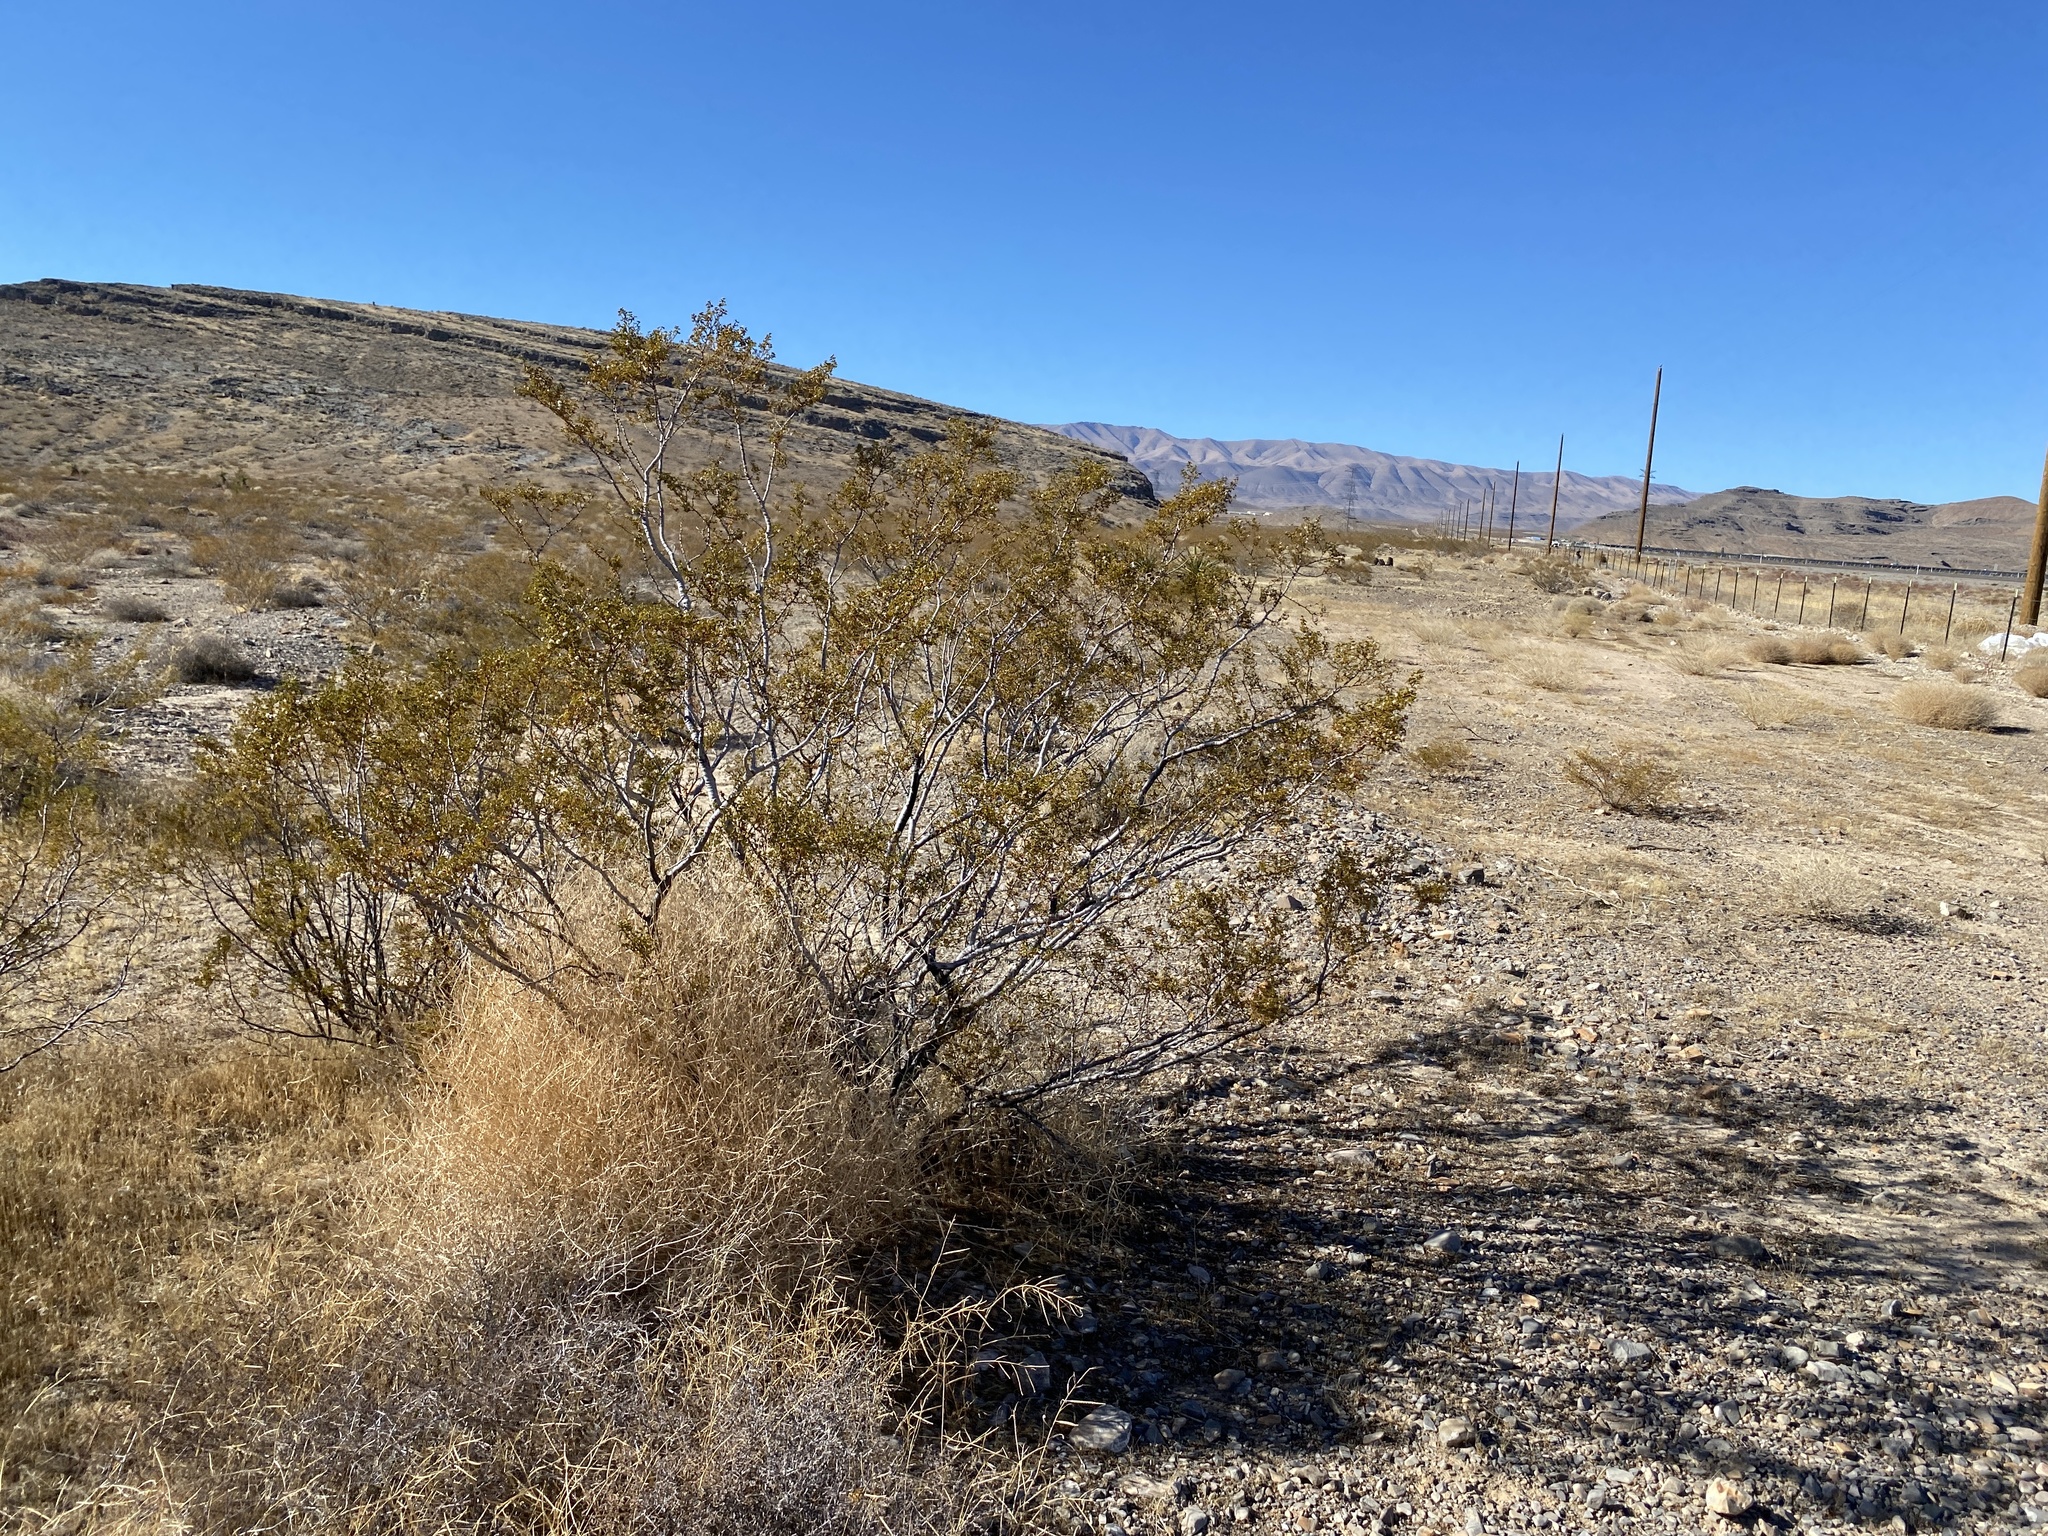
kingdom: Plantae
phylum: Tracheophyta
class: Magnoliopsida
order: Zygophyllales
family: Zygophyllaceae
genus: Larrea
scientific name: Larrea tridentata
